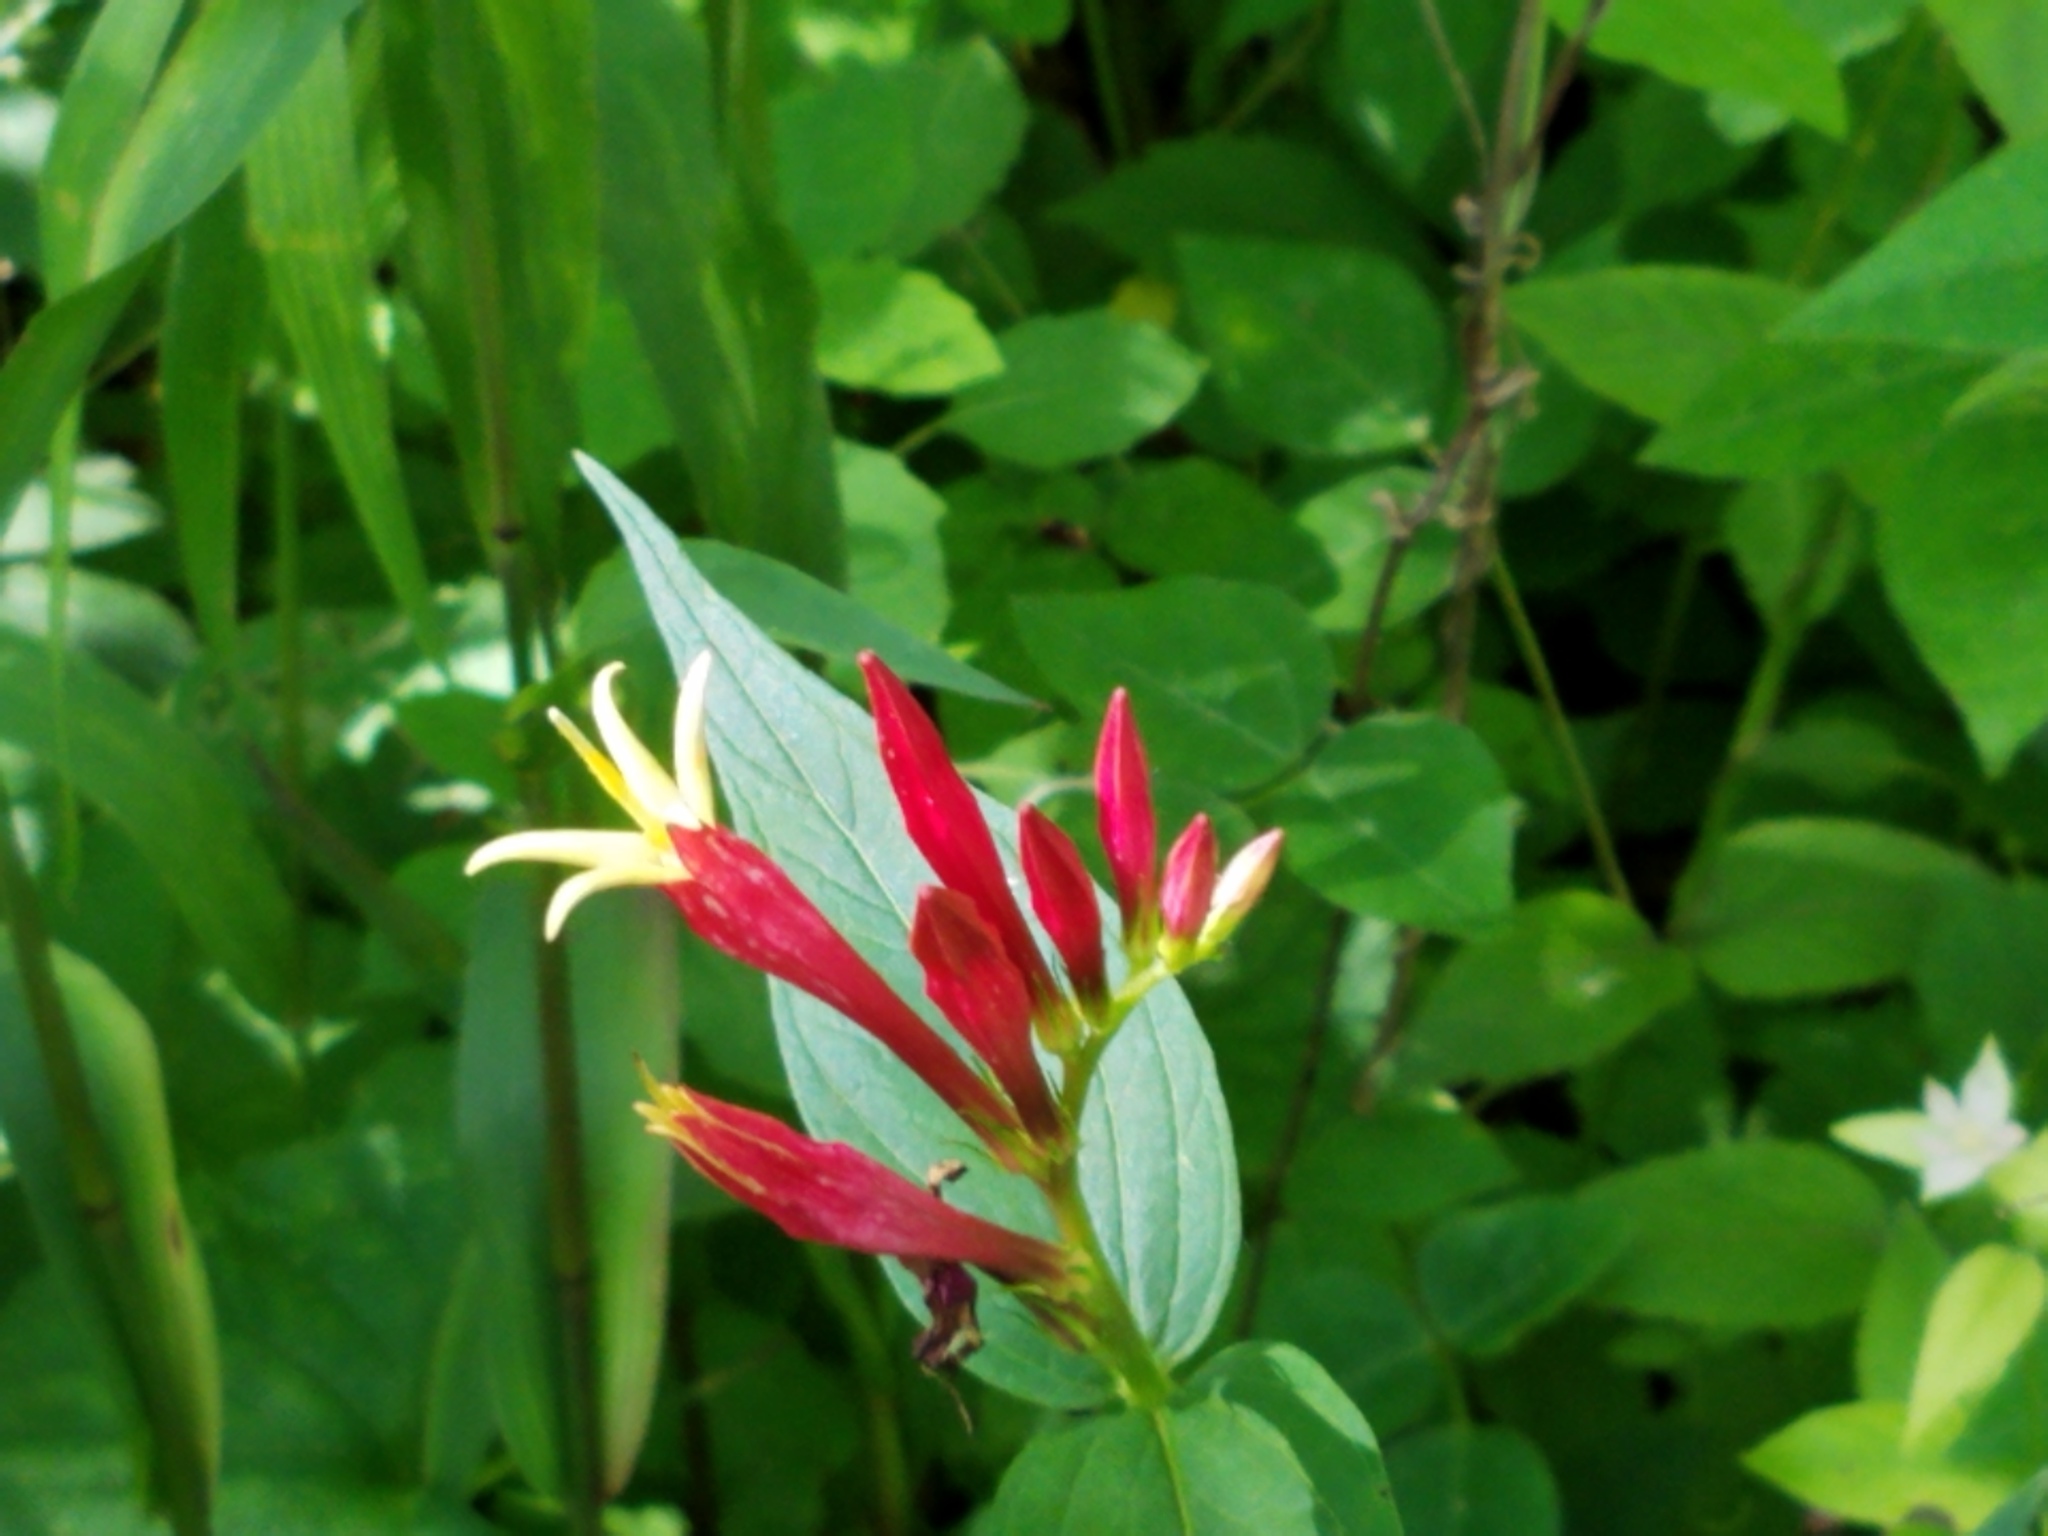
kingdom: Plantae
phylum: Tracheophyta
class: Magnoliopsida
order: Gentianales
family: Loganiaceae
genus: Spigelia
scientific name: Spigelia marilandica
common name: Indian-pink
